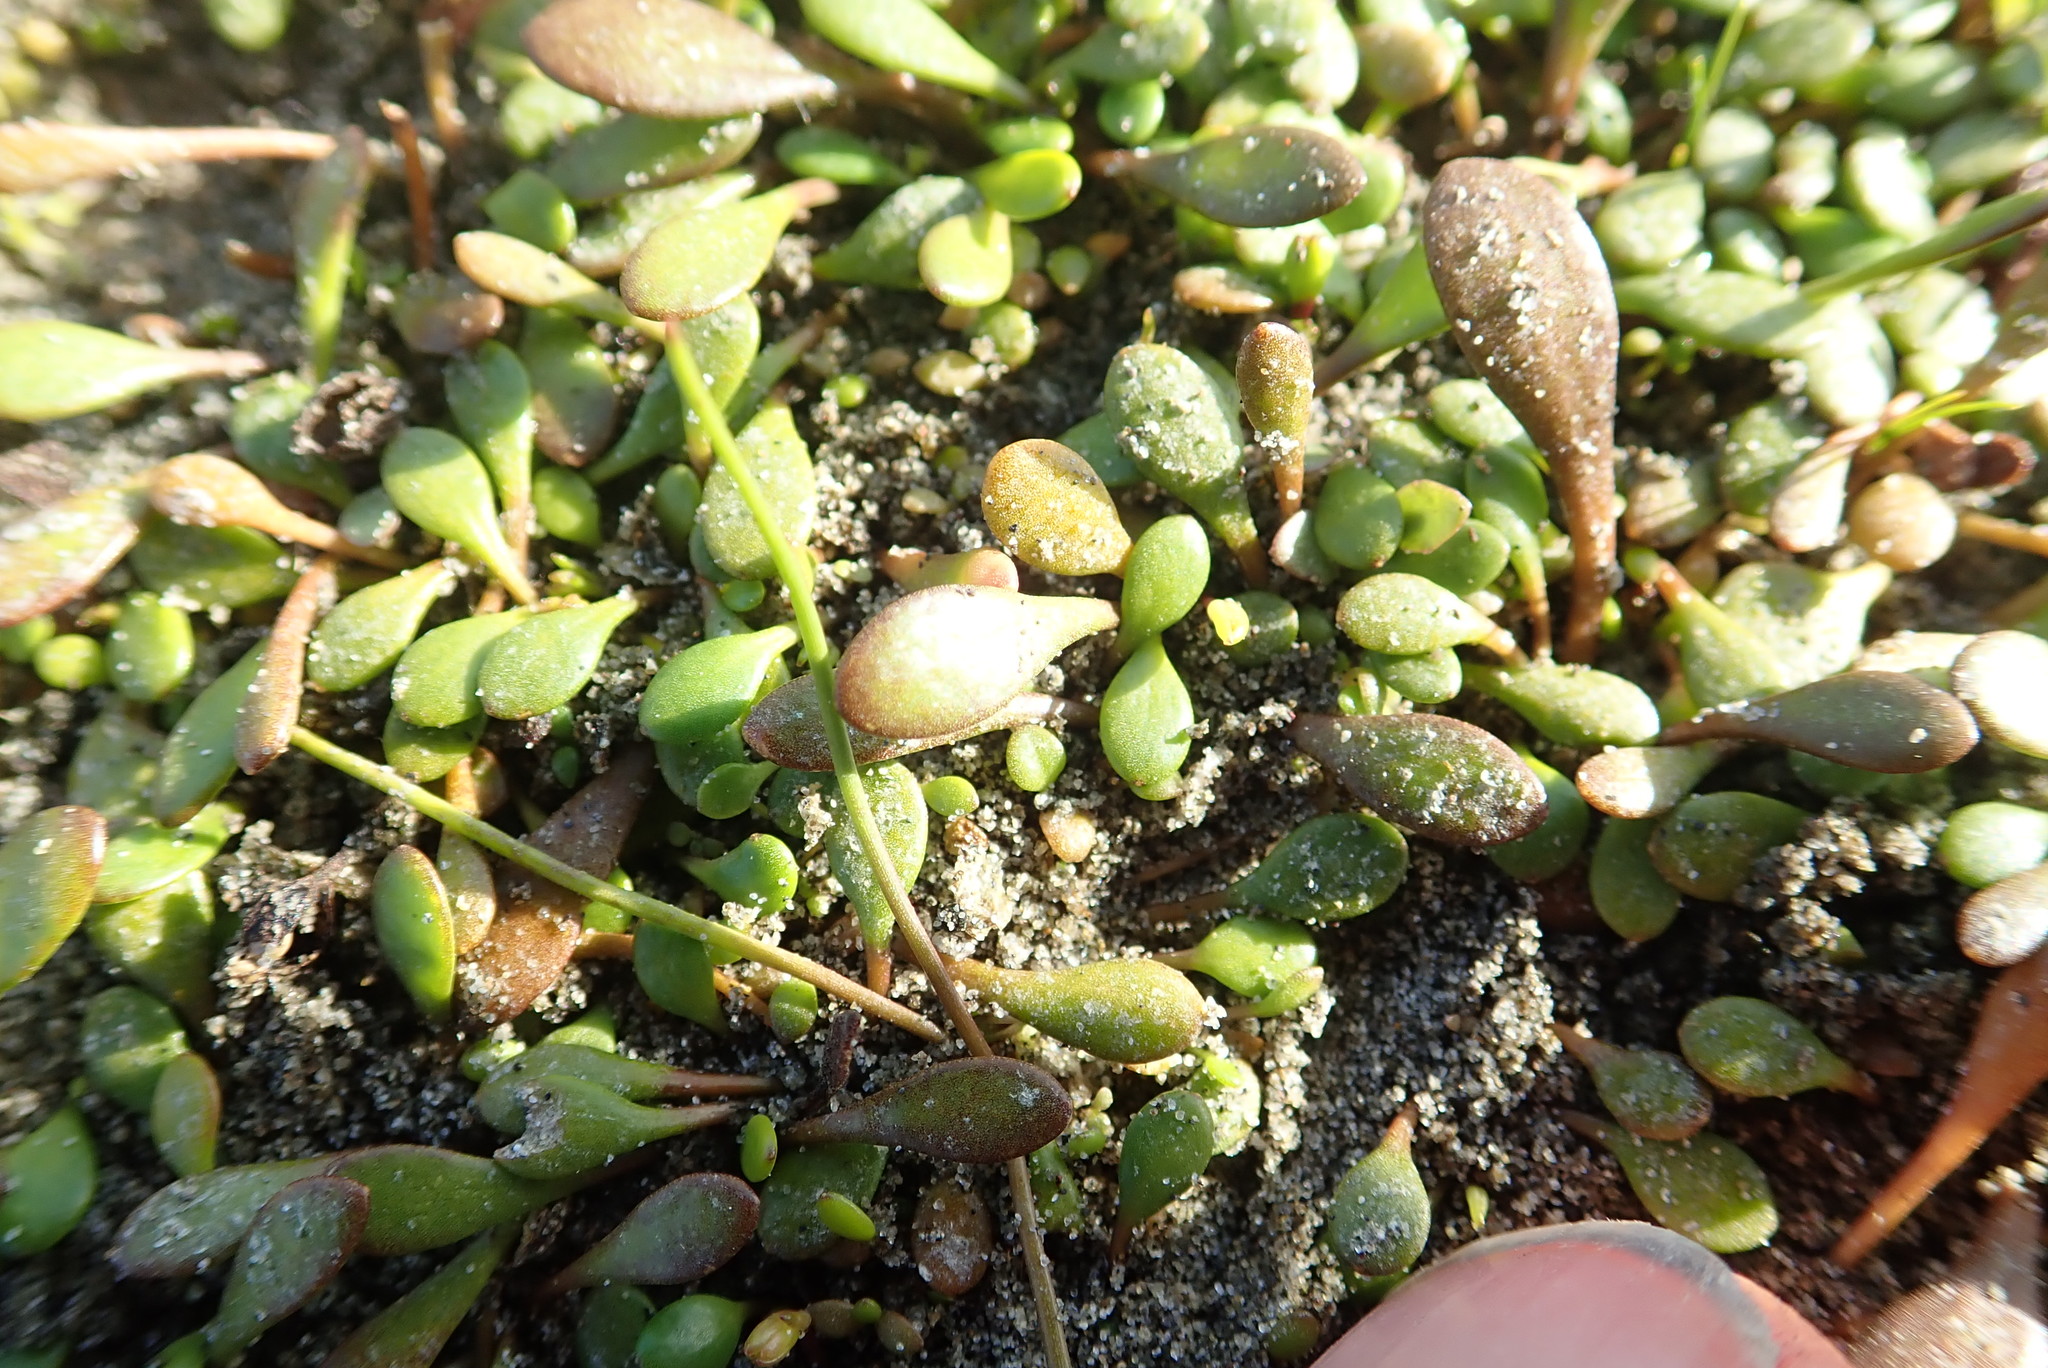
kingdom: Plantae
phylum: Tracheophyta
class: Magnoliopsida
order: Asterales
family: Goodeniaceae
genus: Goodenia
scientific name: Goodenia radicans
